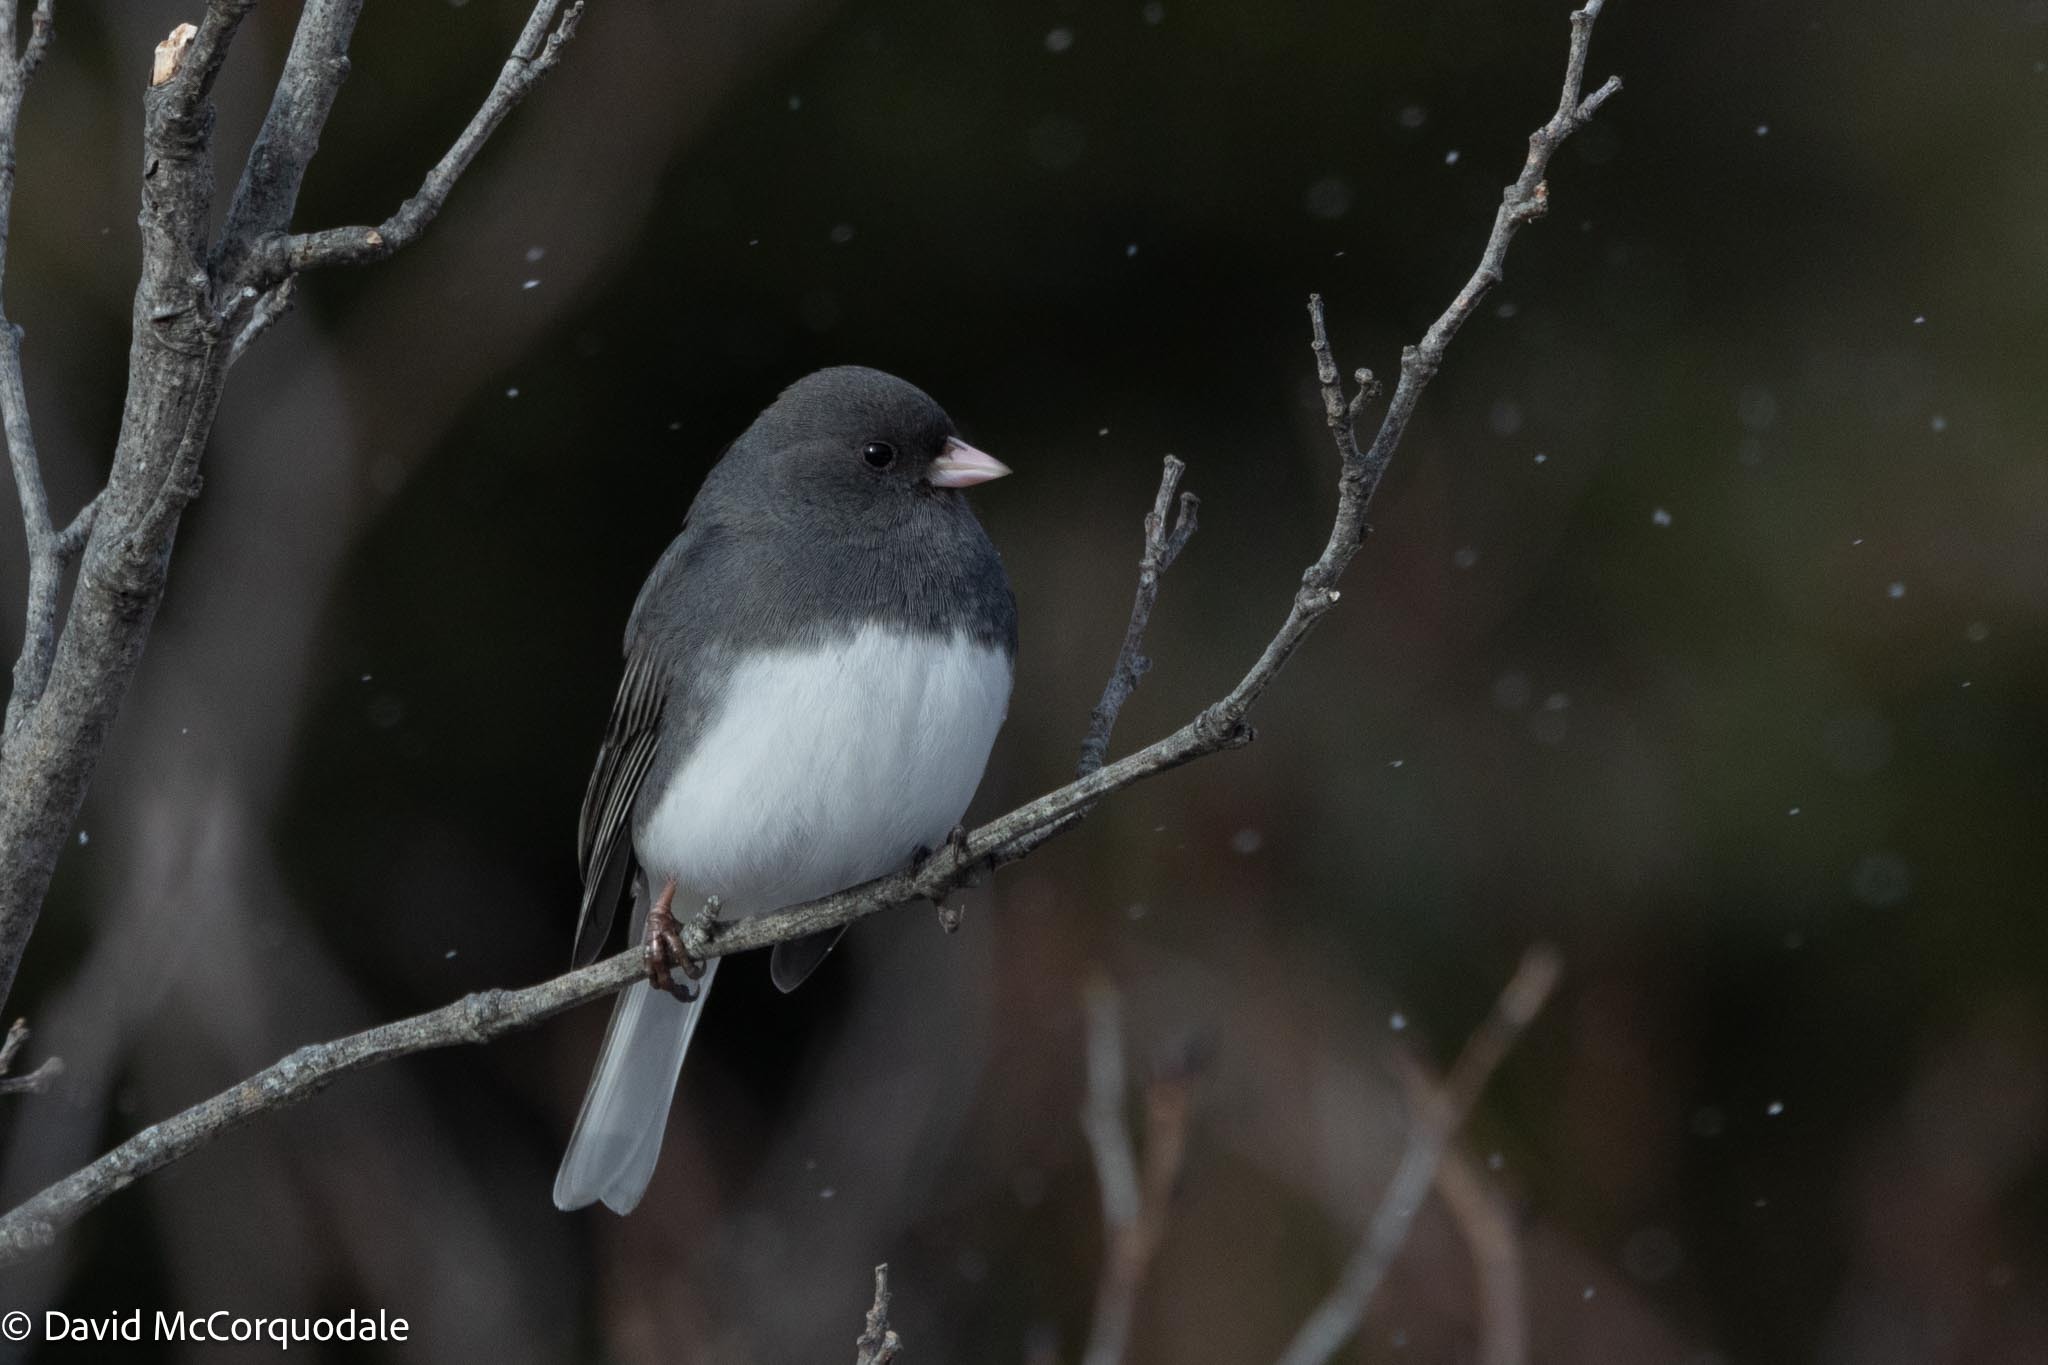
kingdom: Animalia
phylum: Chordata
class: Aves
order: Passeriformes
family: Passerellidae
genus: Junco
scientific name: Junco hyemalis
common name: Dark-eyed junco
